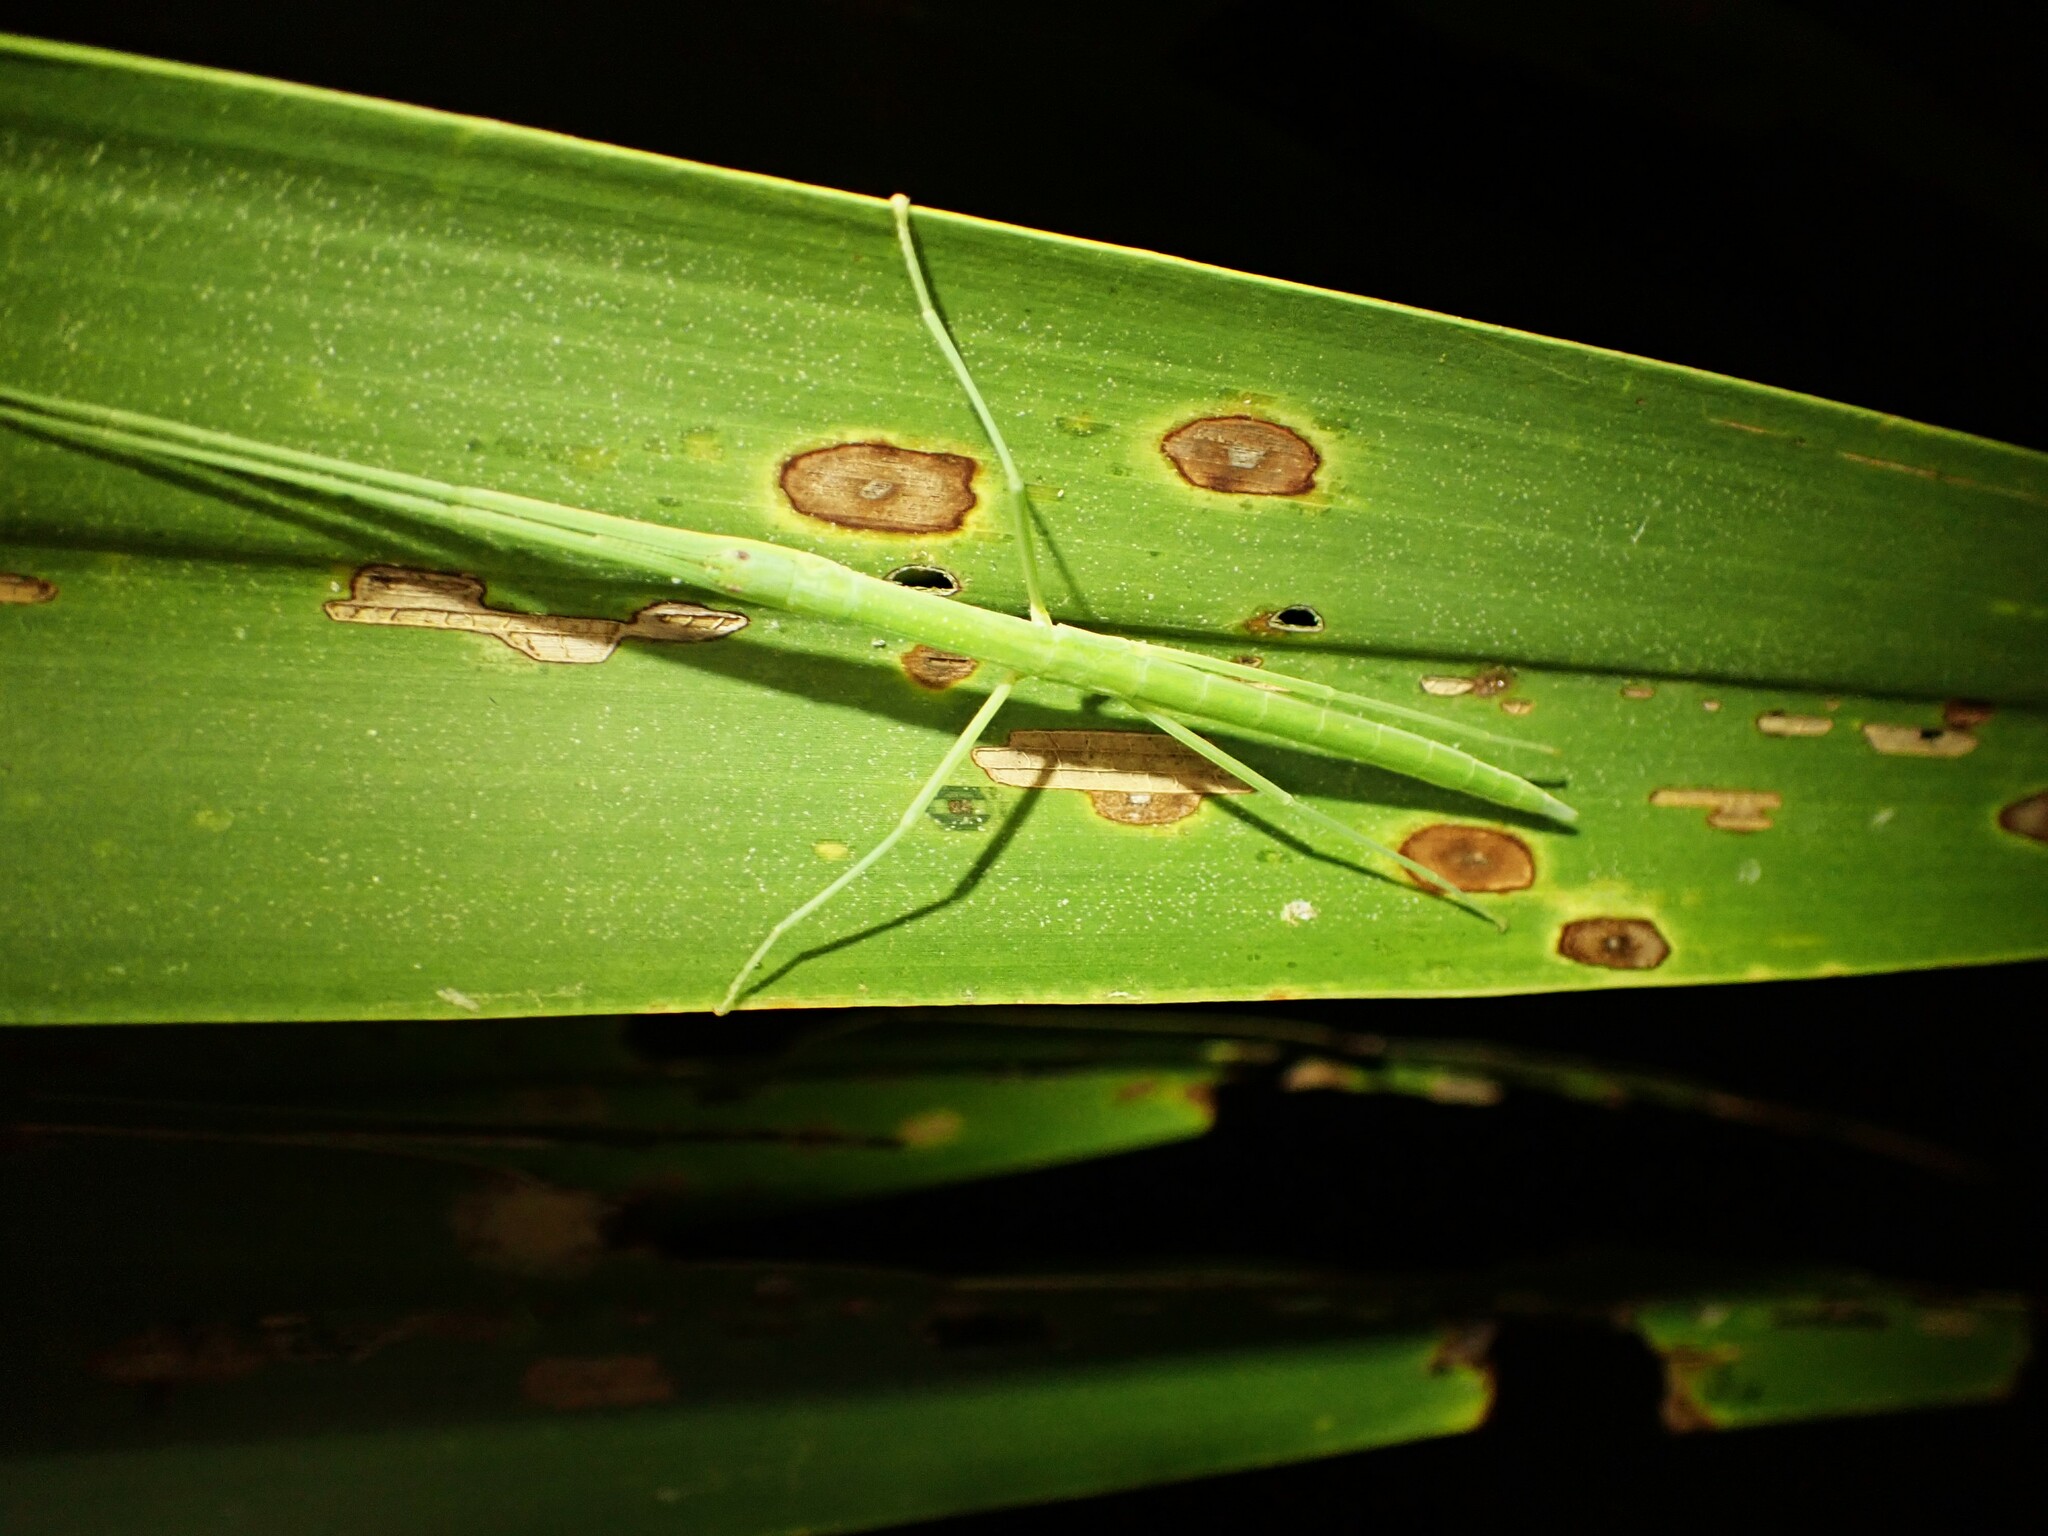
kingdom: Animalia
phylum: Arthropoda
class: Insecta
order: Phasmida
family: Phasmatidae
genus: Graeffea
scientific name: Graeffea crouanii
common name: Coconut stick insect
